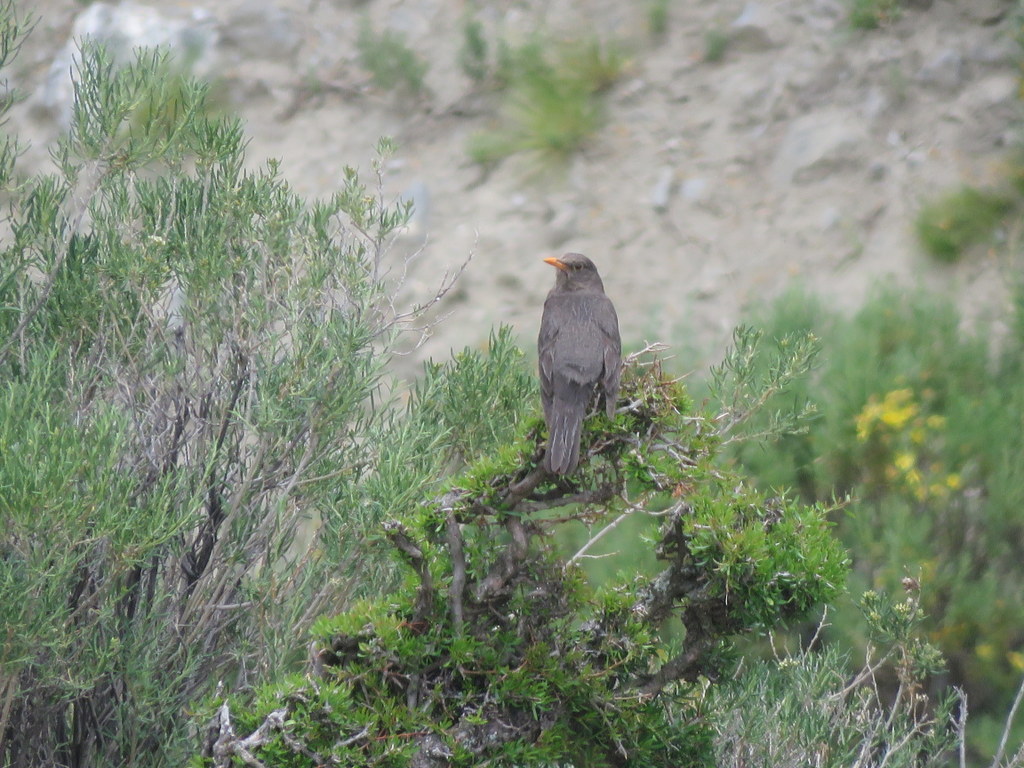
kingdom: Animalia
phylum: Chordata
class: Aves
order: Passeriformes
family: Turdidae
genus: Turdus
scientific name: Turdus chiguanco
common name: Chiguanco thrush
